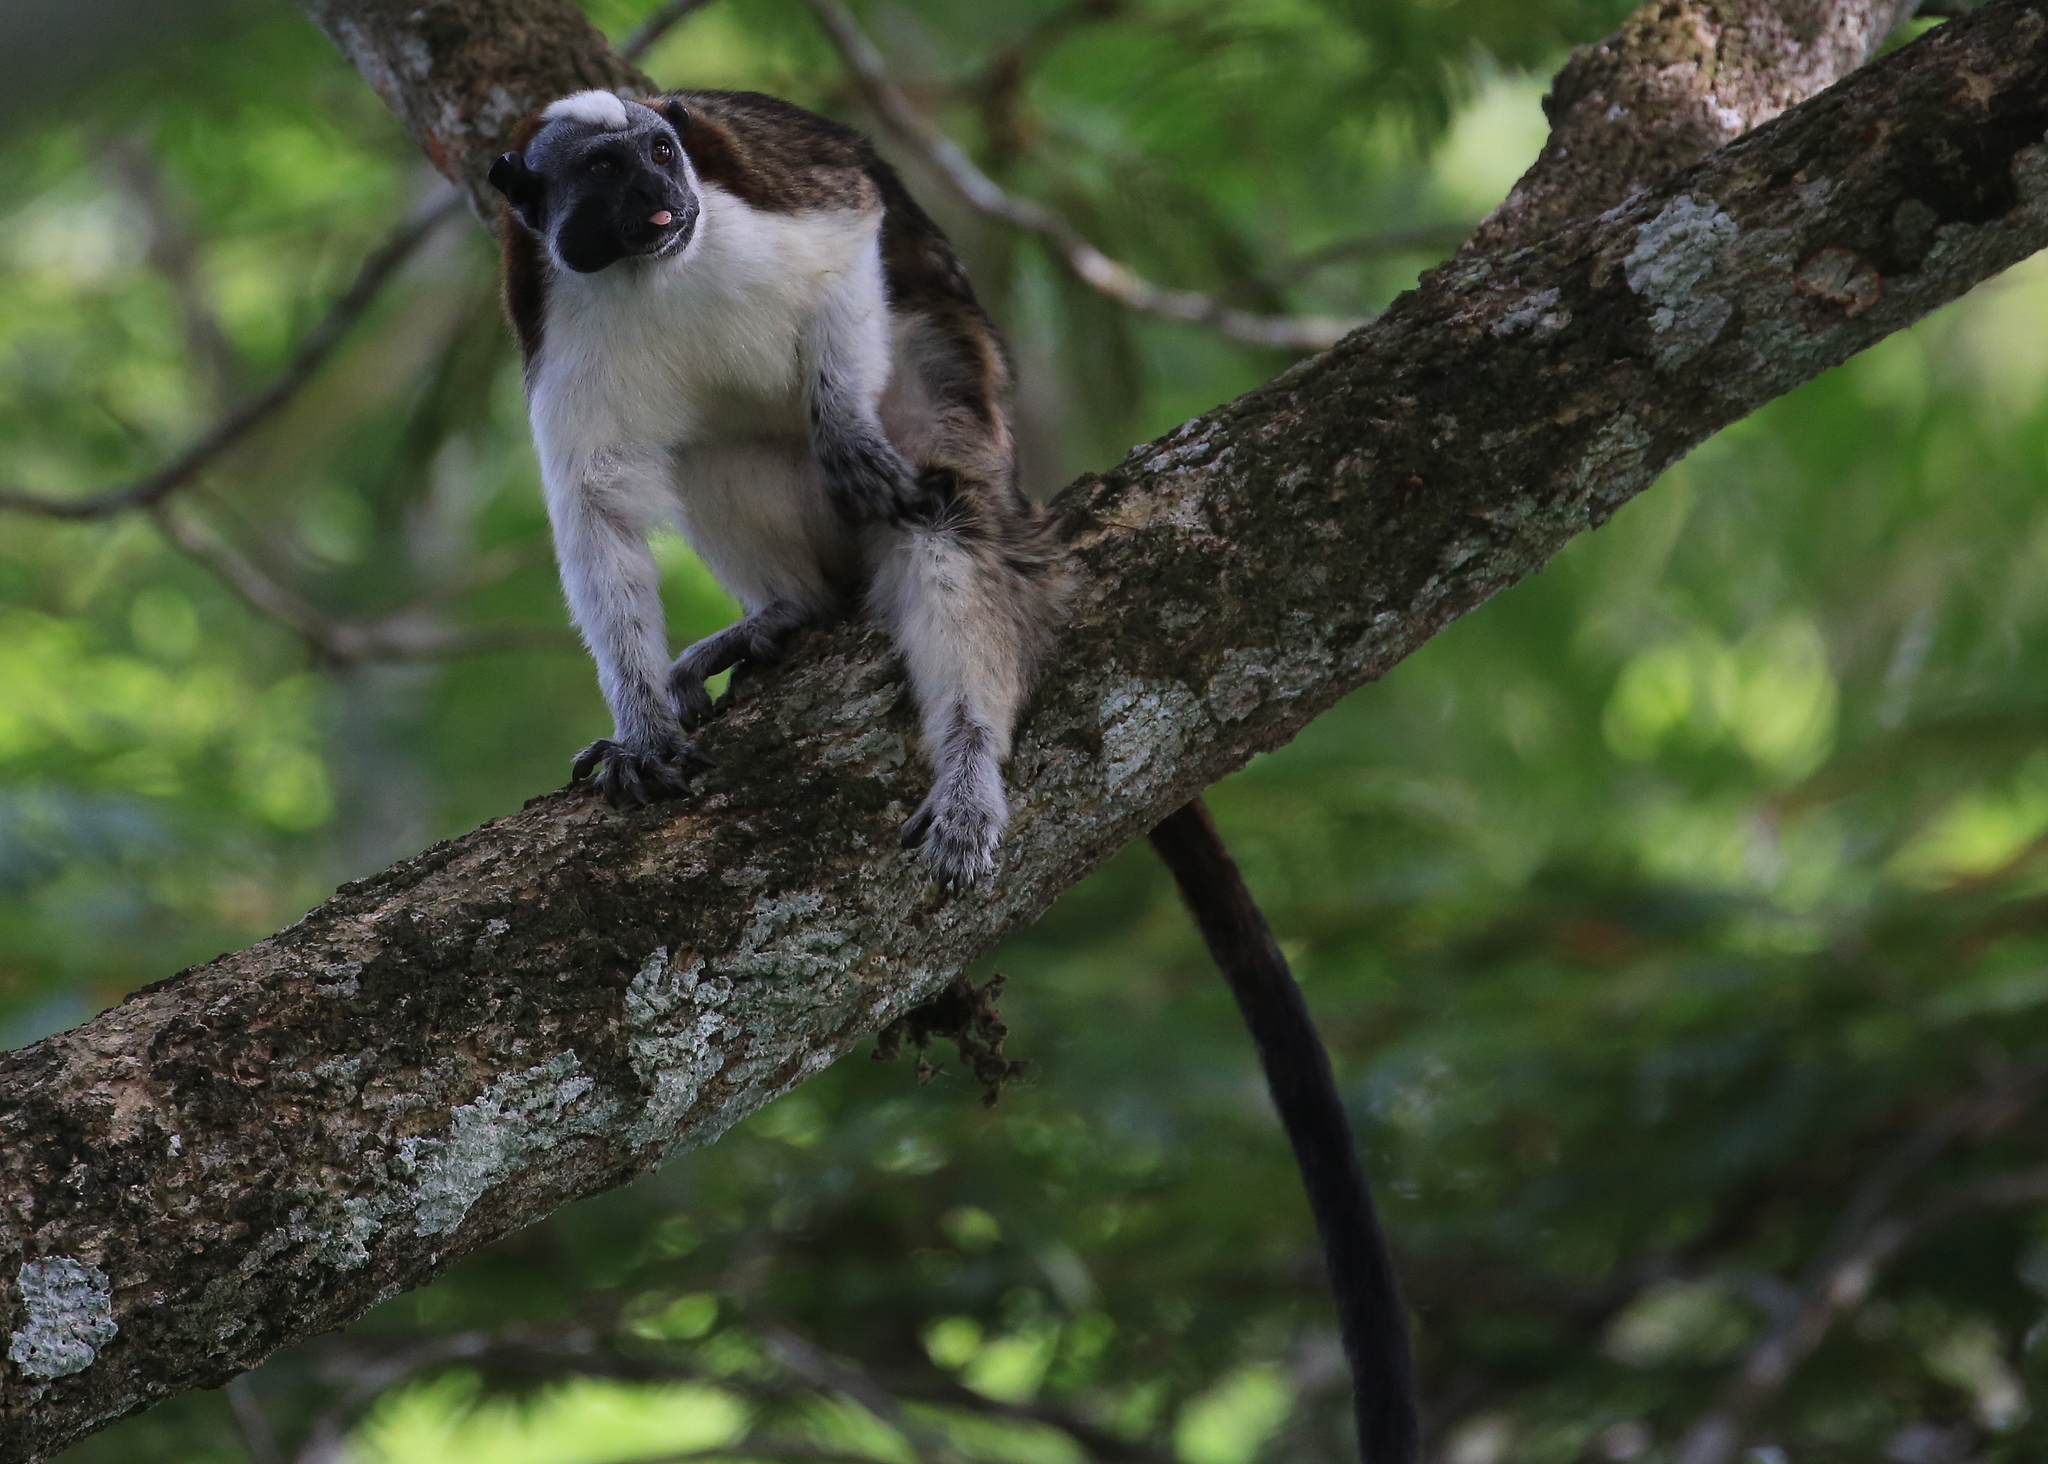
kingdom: Animalia
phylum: Chordata
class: Mammalia
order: Primates
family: Callitrichidae
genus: Saguinus
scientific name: Saguinus geoffroyi
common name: Geoffroy s tamarin
